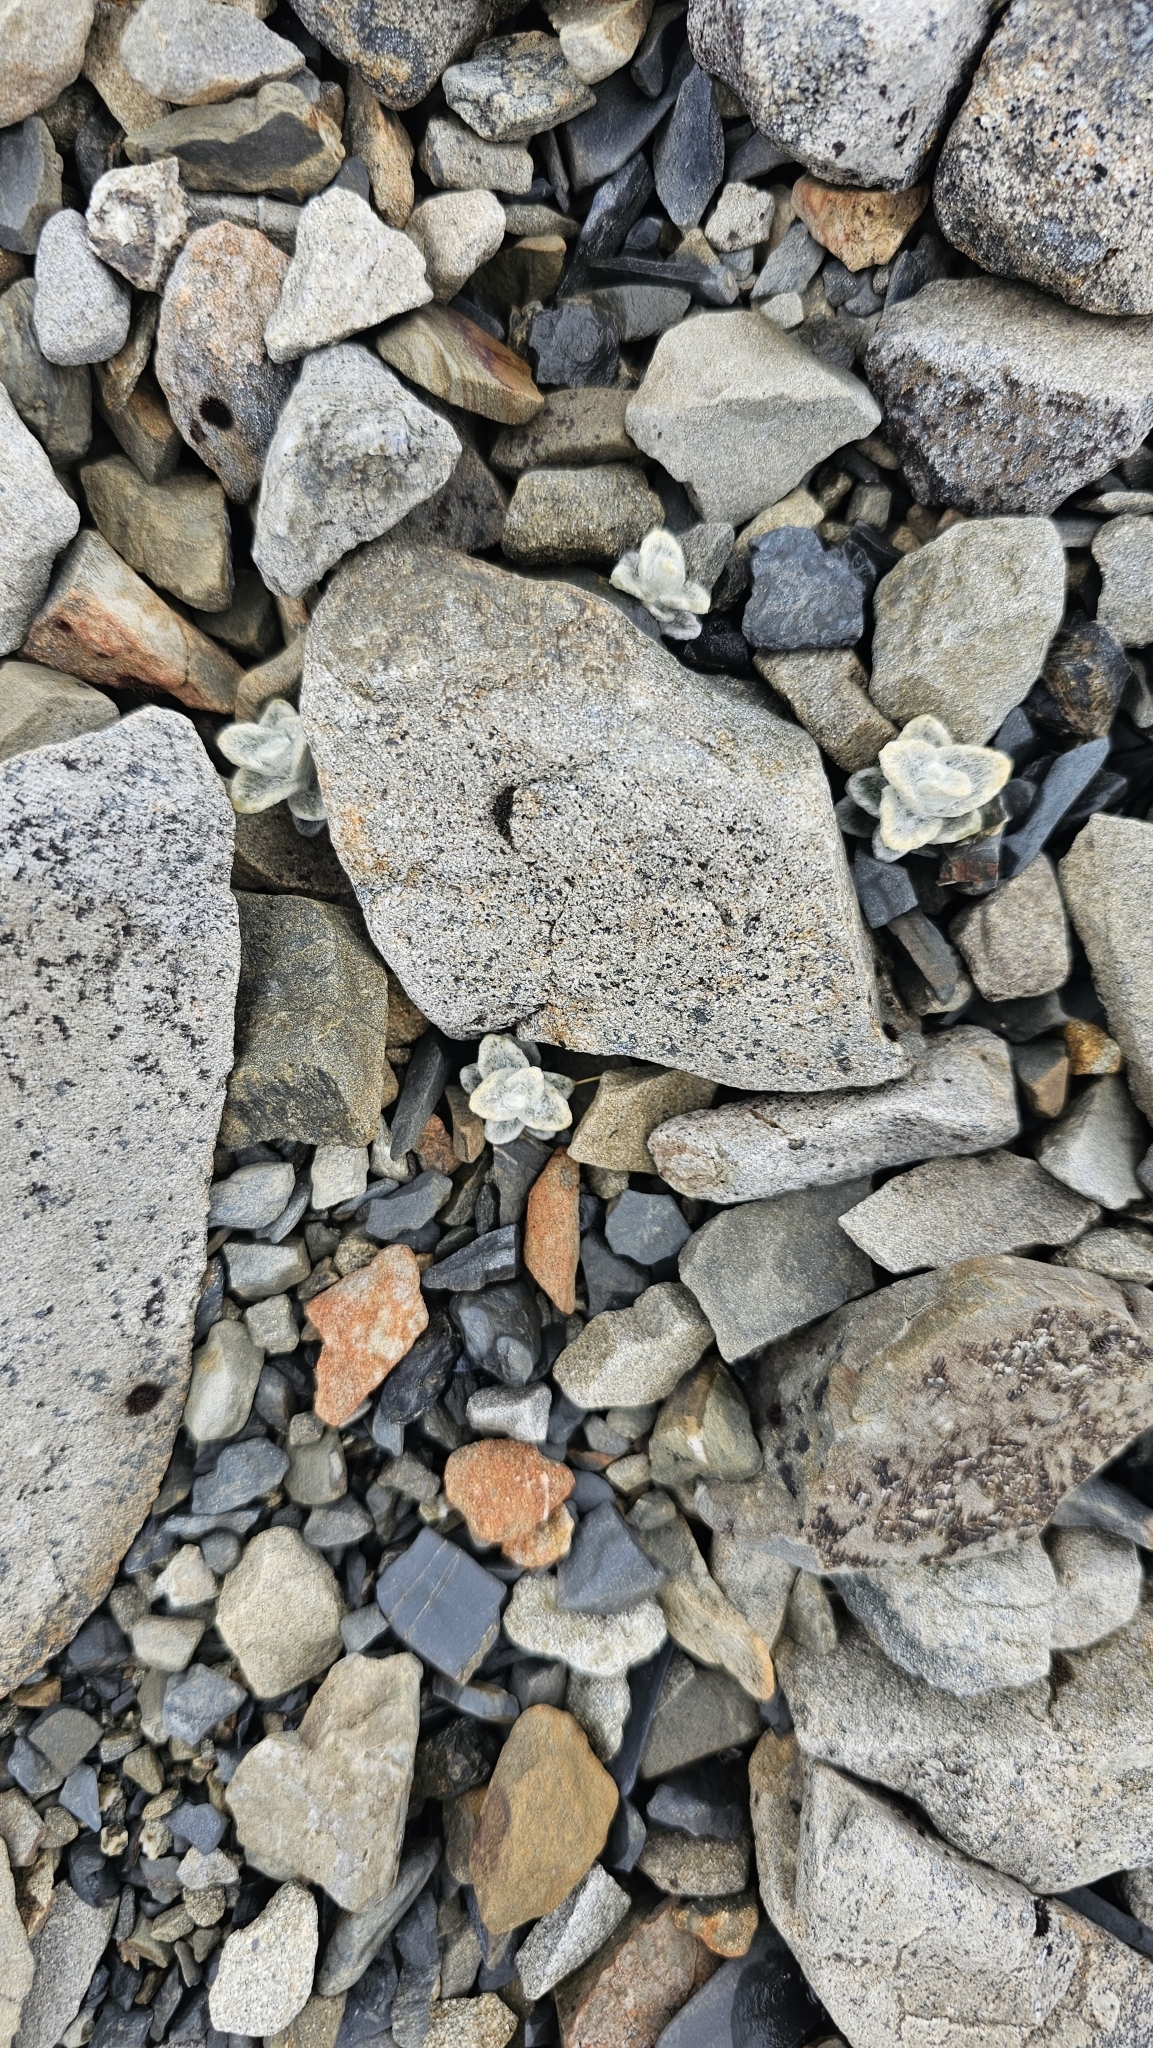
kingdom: Plantae
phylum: Tracheophyta
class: Magnoliopsida
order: Asterales
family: Asteraceae
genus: Haastia
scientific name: Haastia sinclairii
